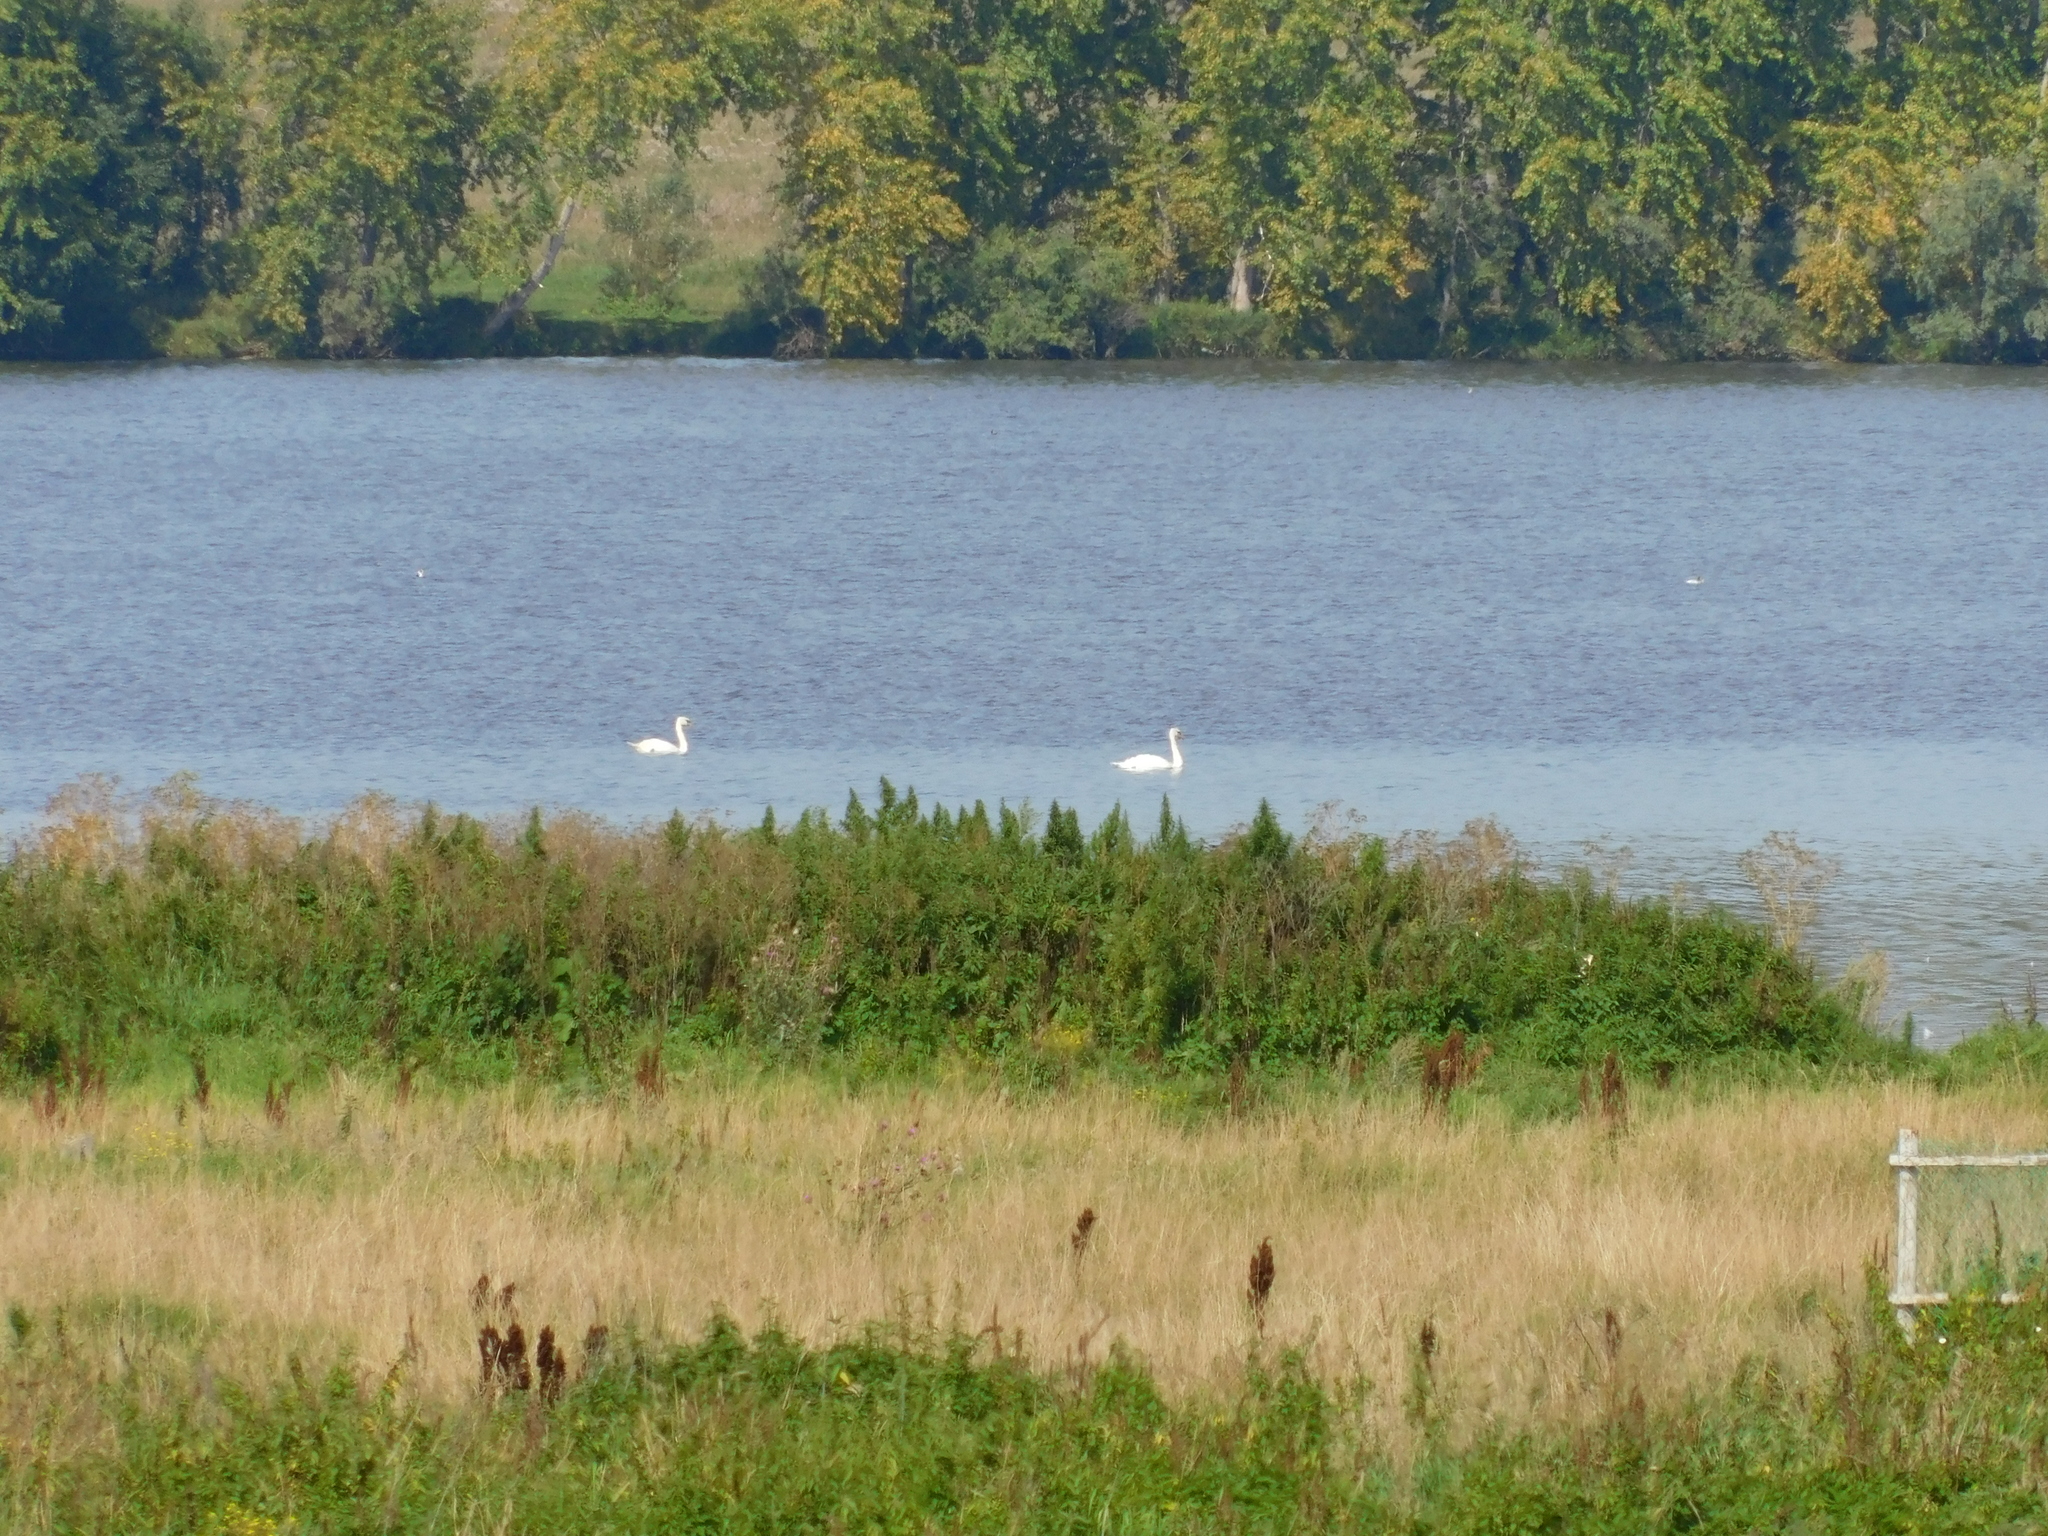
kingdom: Animalia
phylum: Chordata
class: Aves
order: Anseriformes
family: Anatidae
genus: Cygnus
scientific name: Cygnus olor
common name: Mute swan
